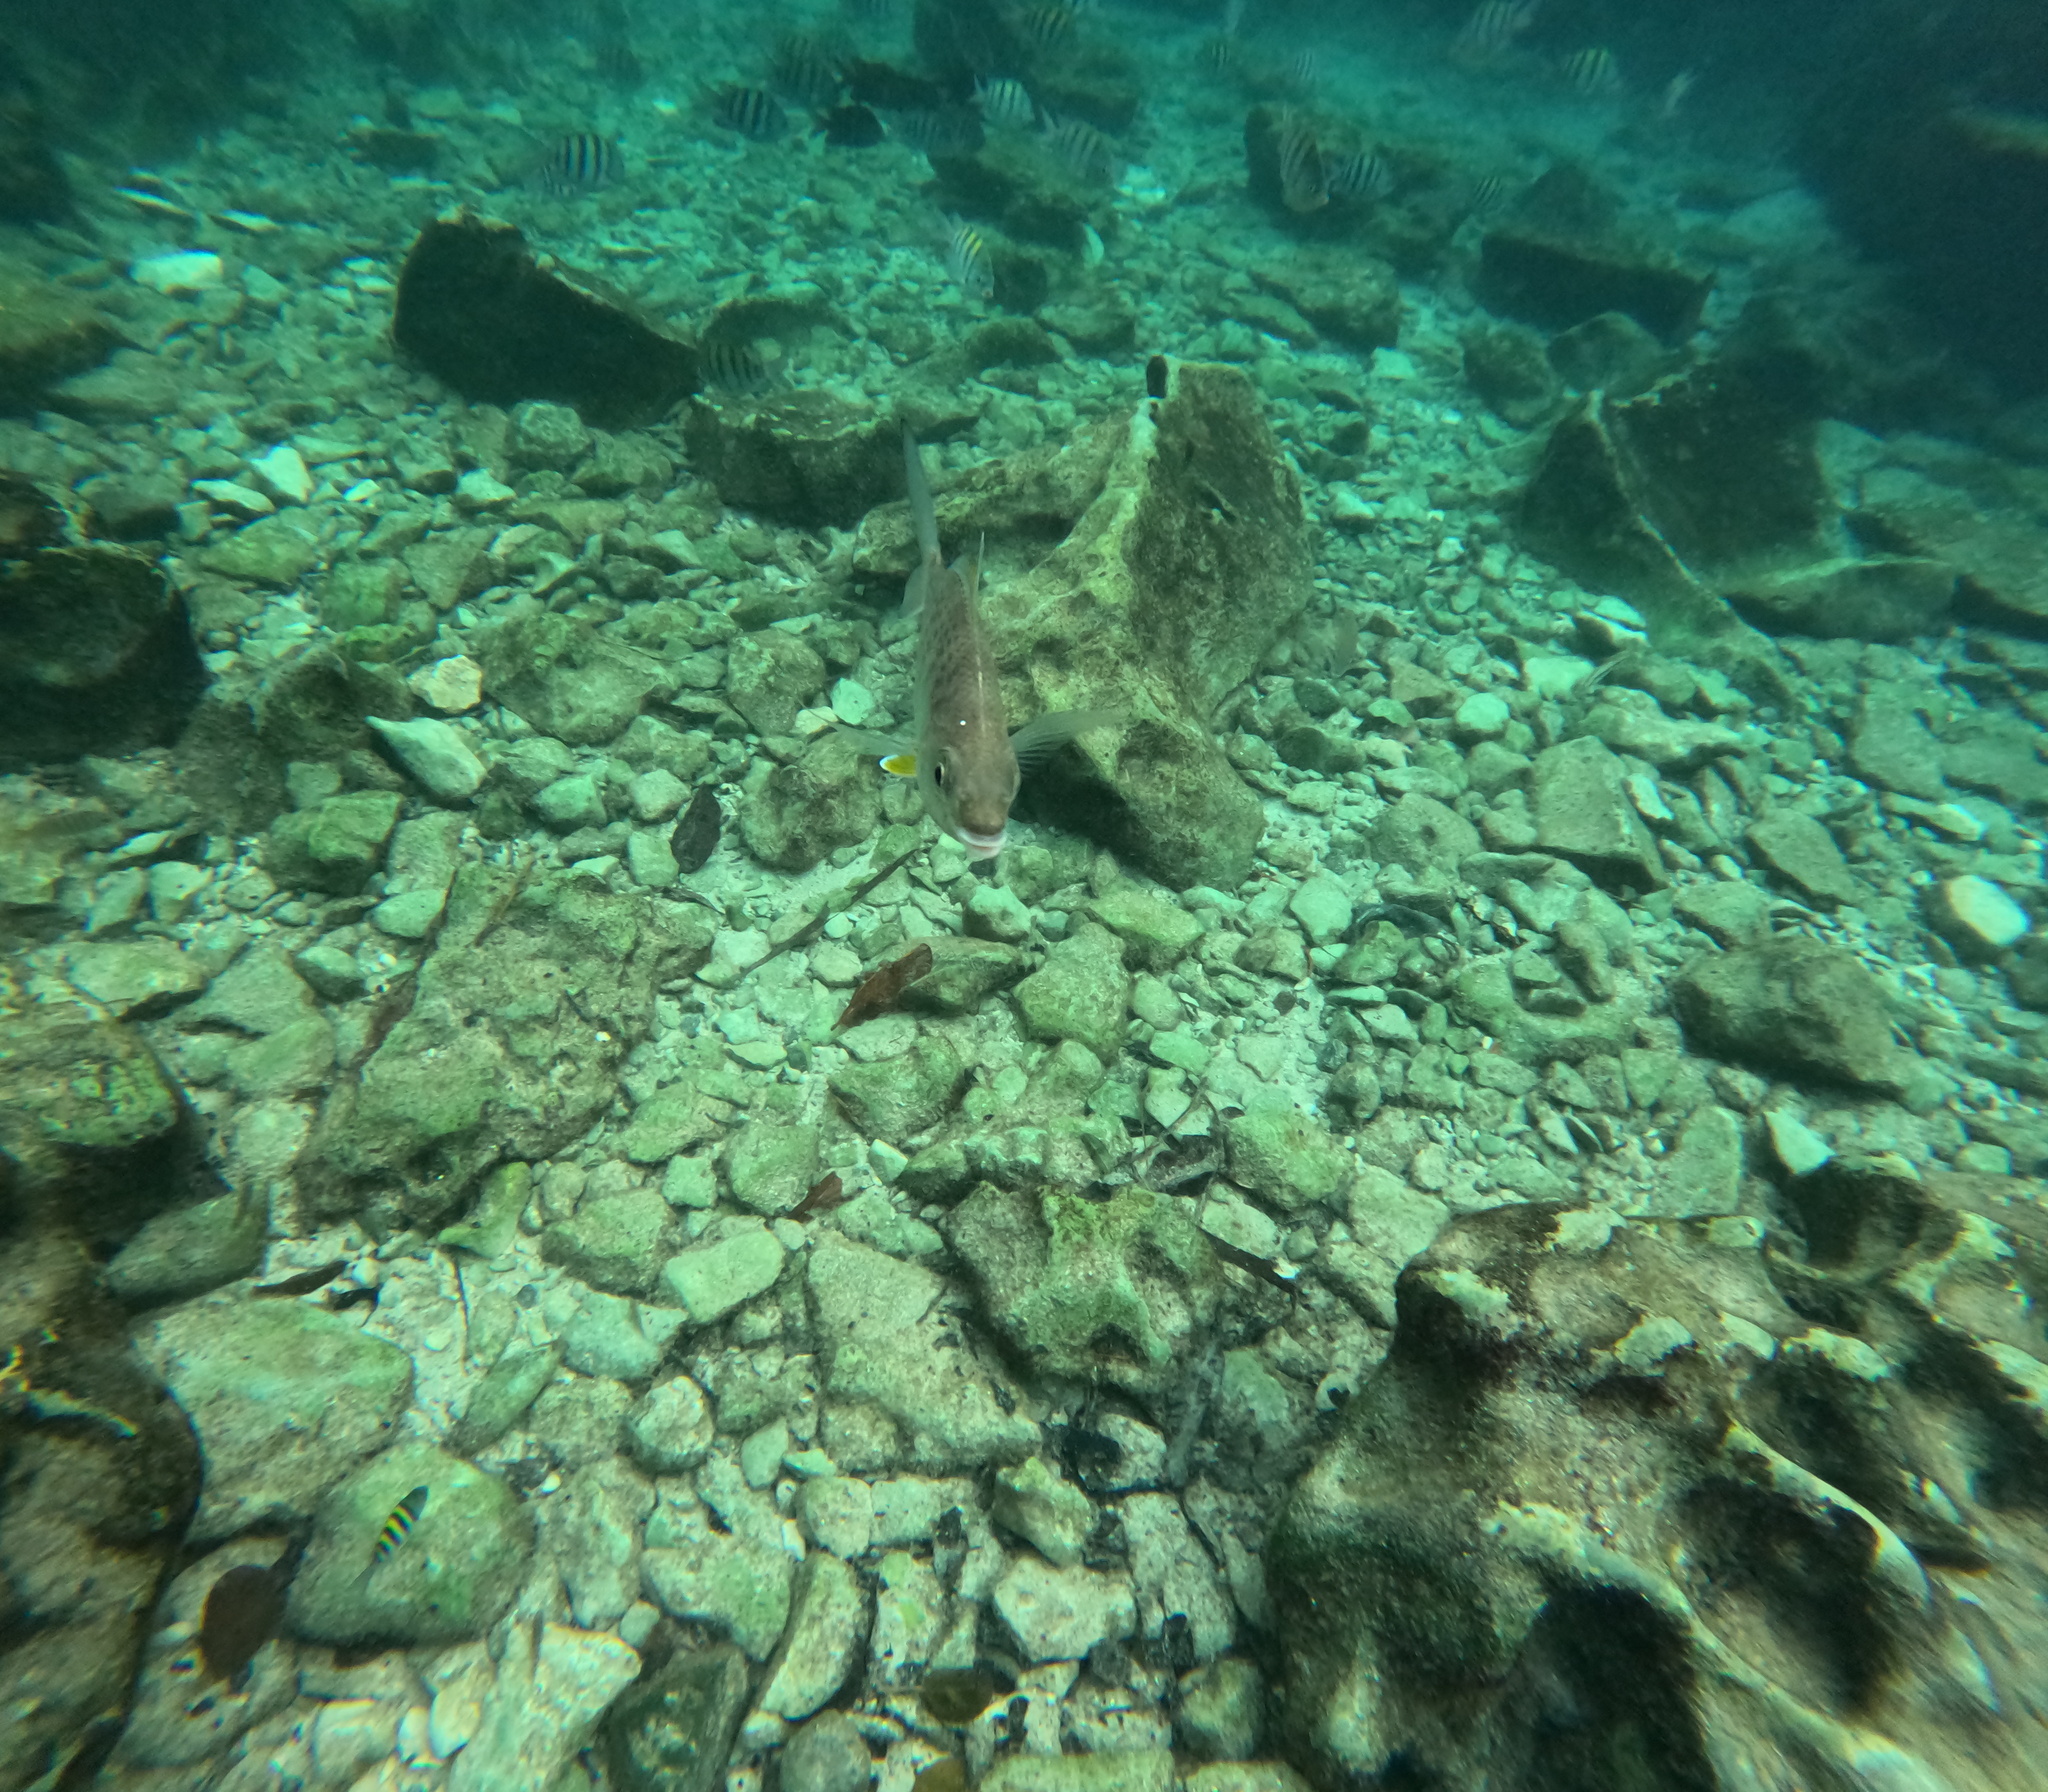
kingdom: Animalia
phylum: Chordata
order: Perciformes
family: Gerreidae
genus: Gerres
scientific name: Gerres cinereus
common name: Hedow
